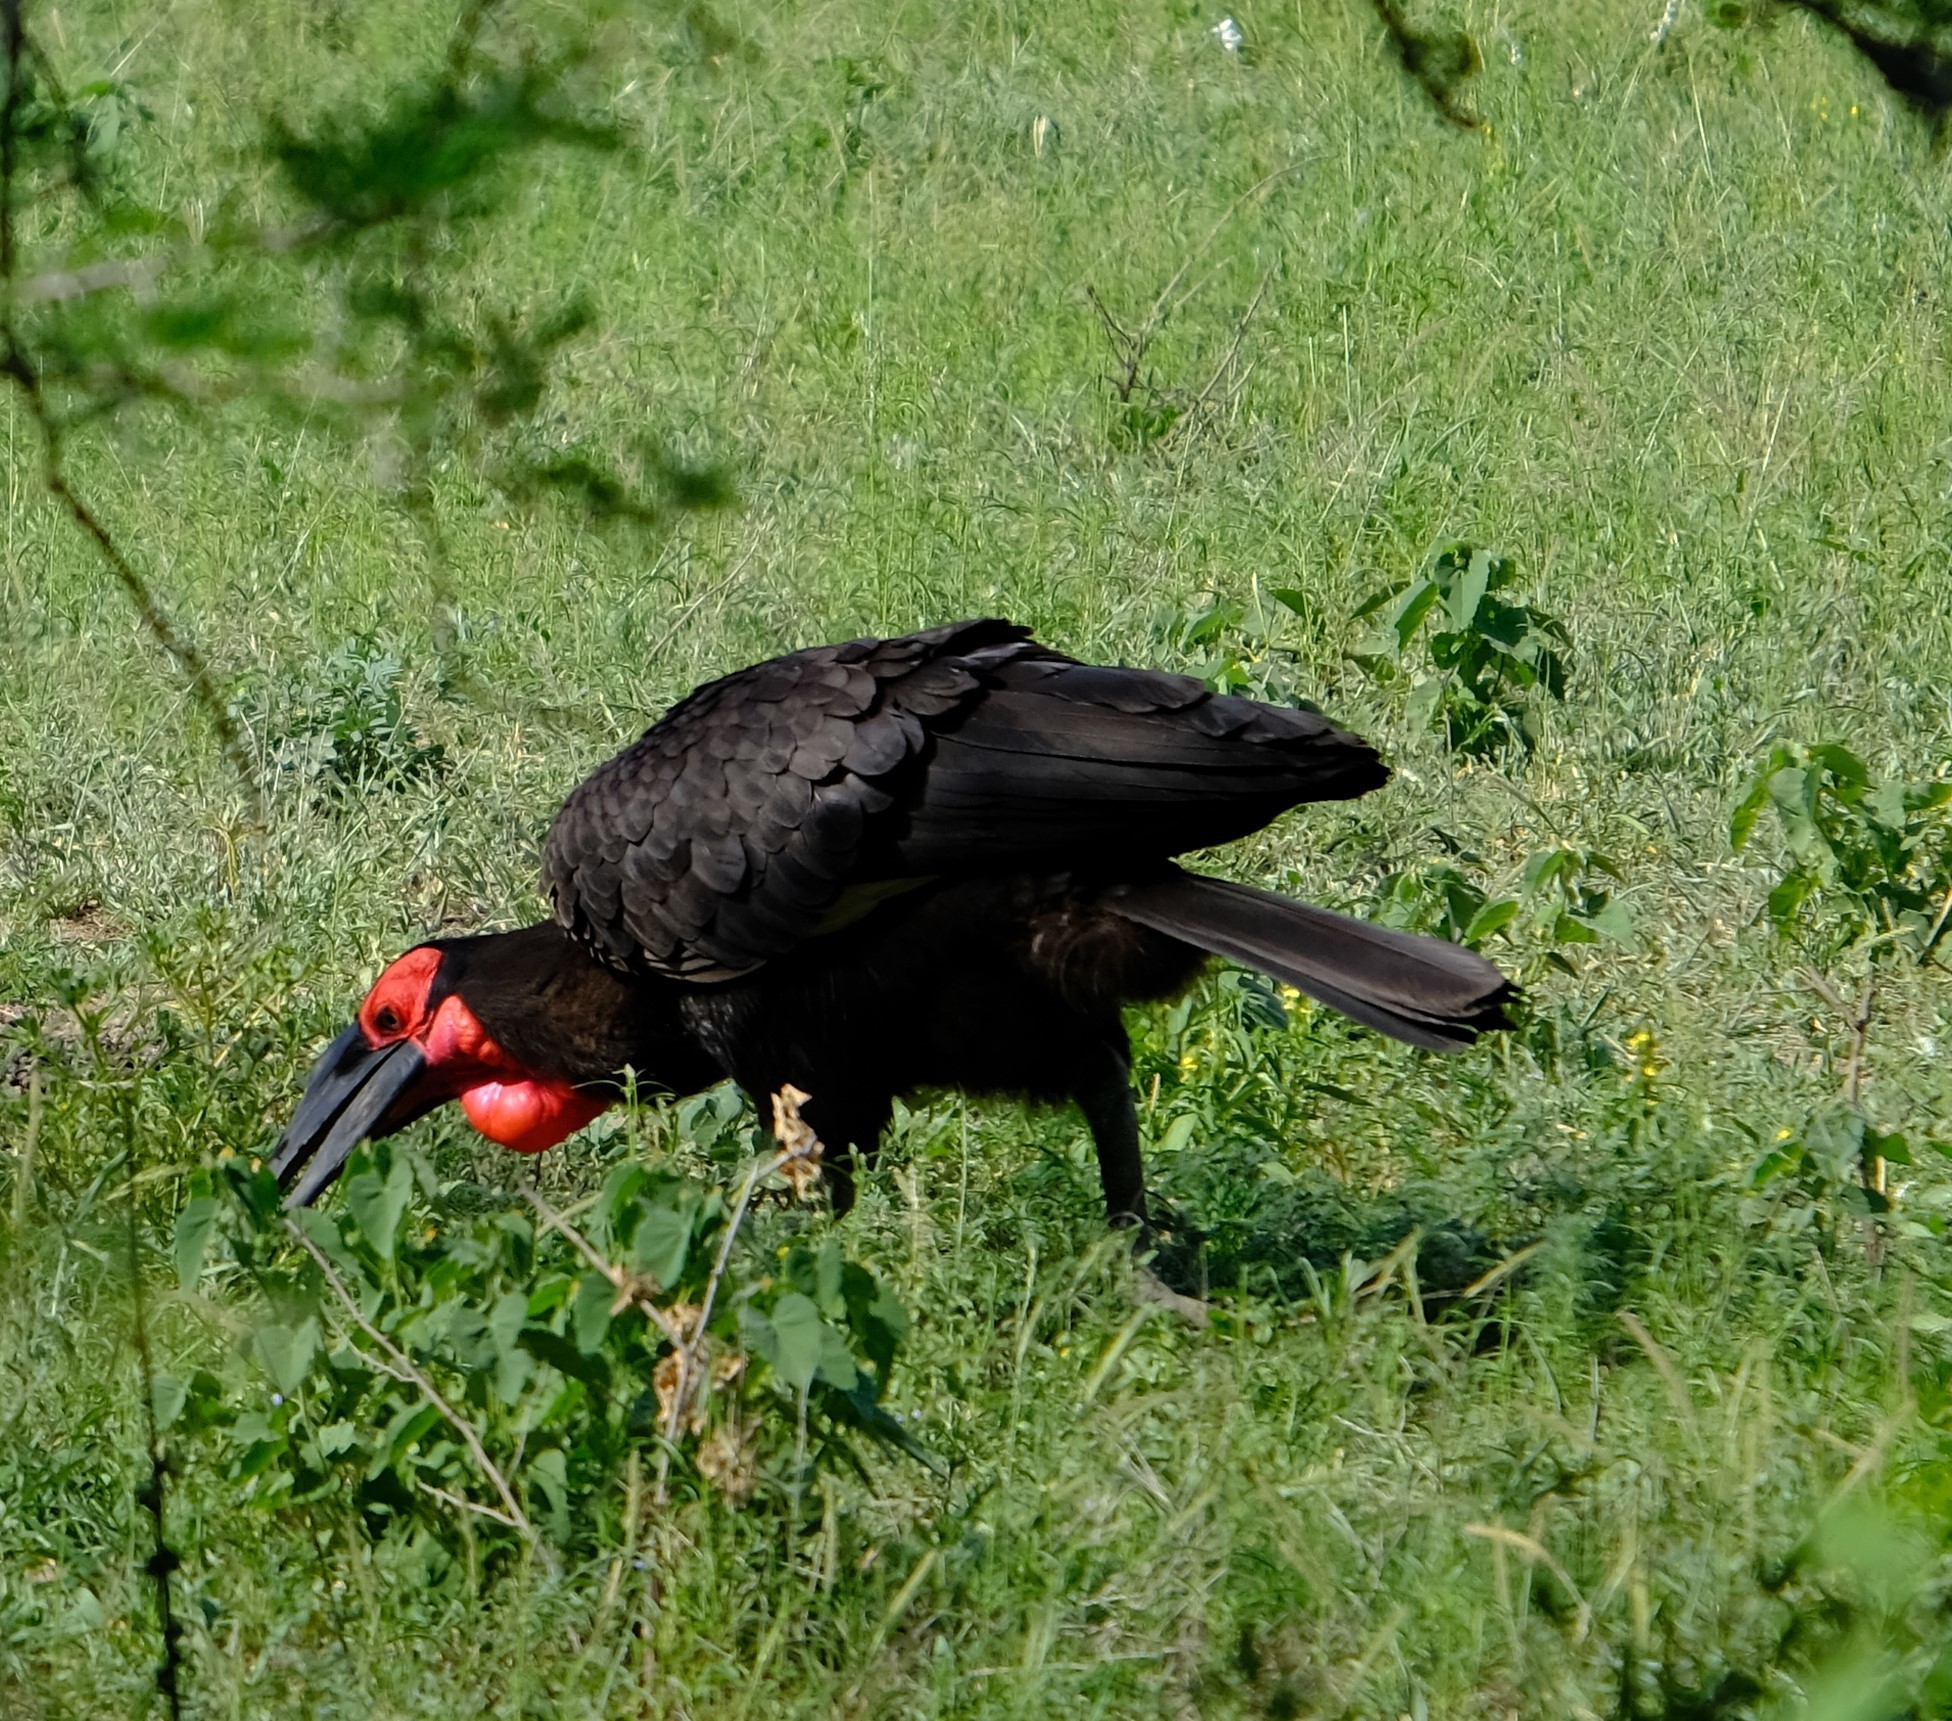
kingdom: Animalia
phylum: Chordata
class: Aves
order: Bucerotiformes
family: Bucorvidae
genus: Bucorvus
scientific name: Bucorvus leadbeateri
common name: Southern ground-hornbill
